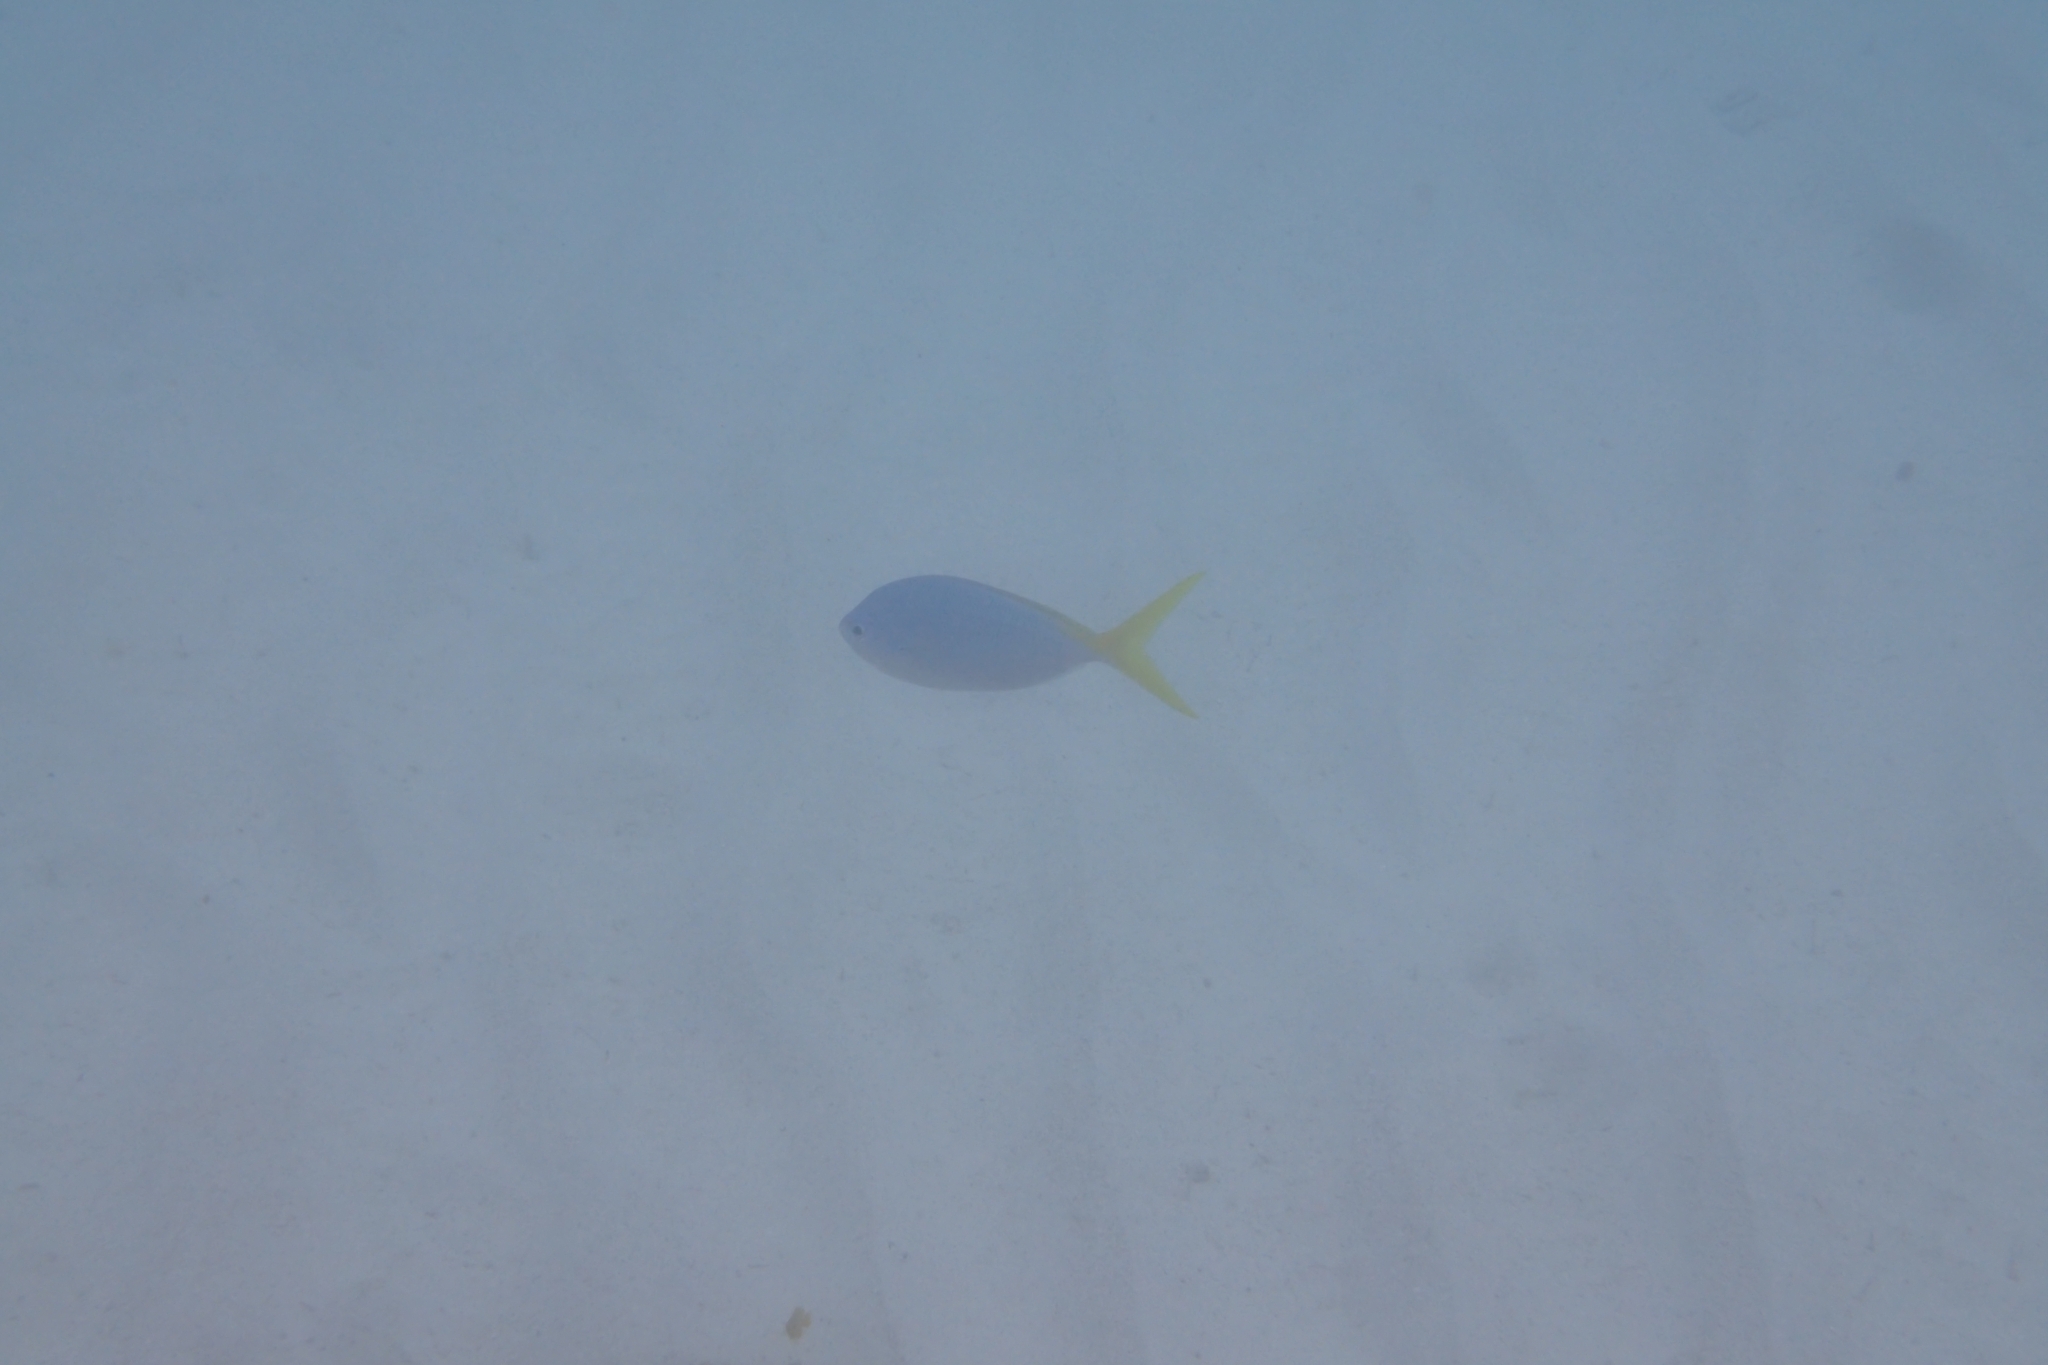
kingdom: Animalia
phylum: Chordata
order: Perciformes
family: Caesionidae
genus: Caesio
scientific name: Caesio cuning
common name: Red-bellied fusilier
